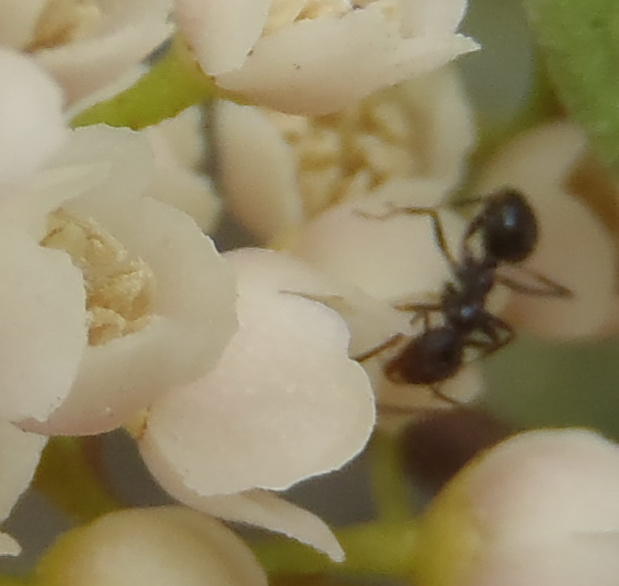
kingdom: Animalia
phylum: Arthropoda
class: Insecta
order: Hymenoptera
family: Formicidae
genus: Lepisiota
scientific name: Lepisiota capensis
